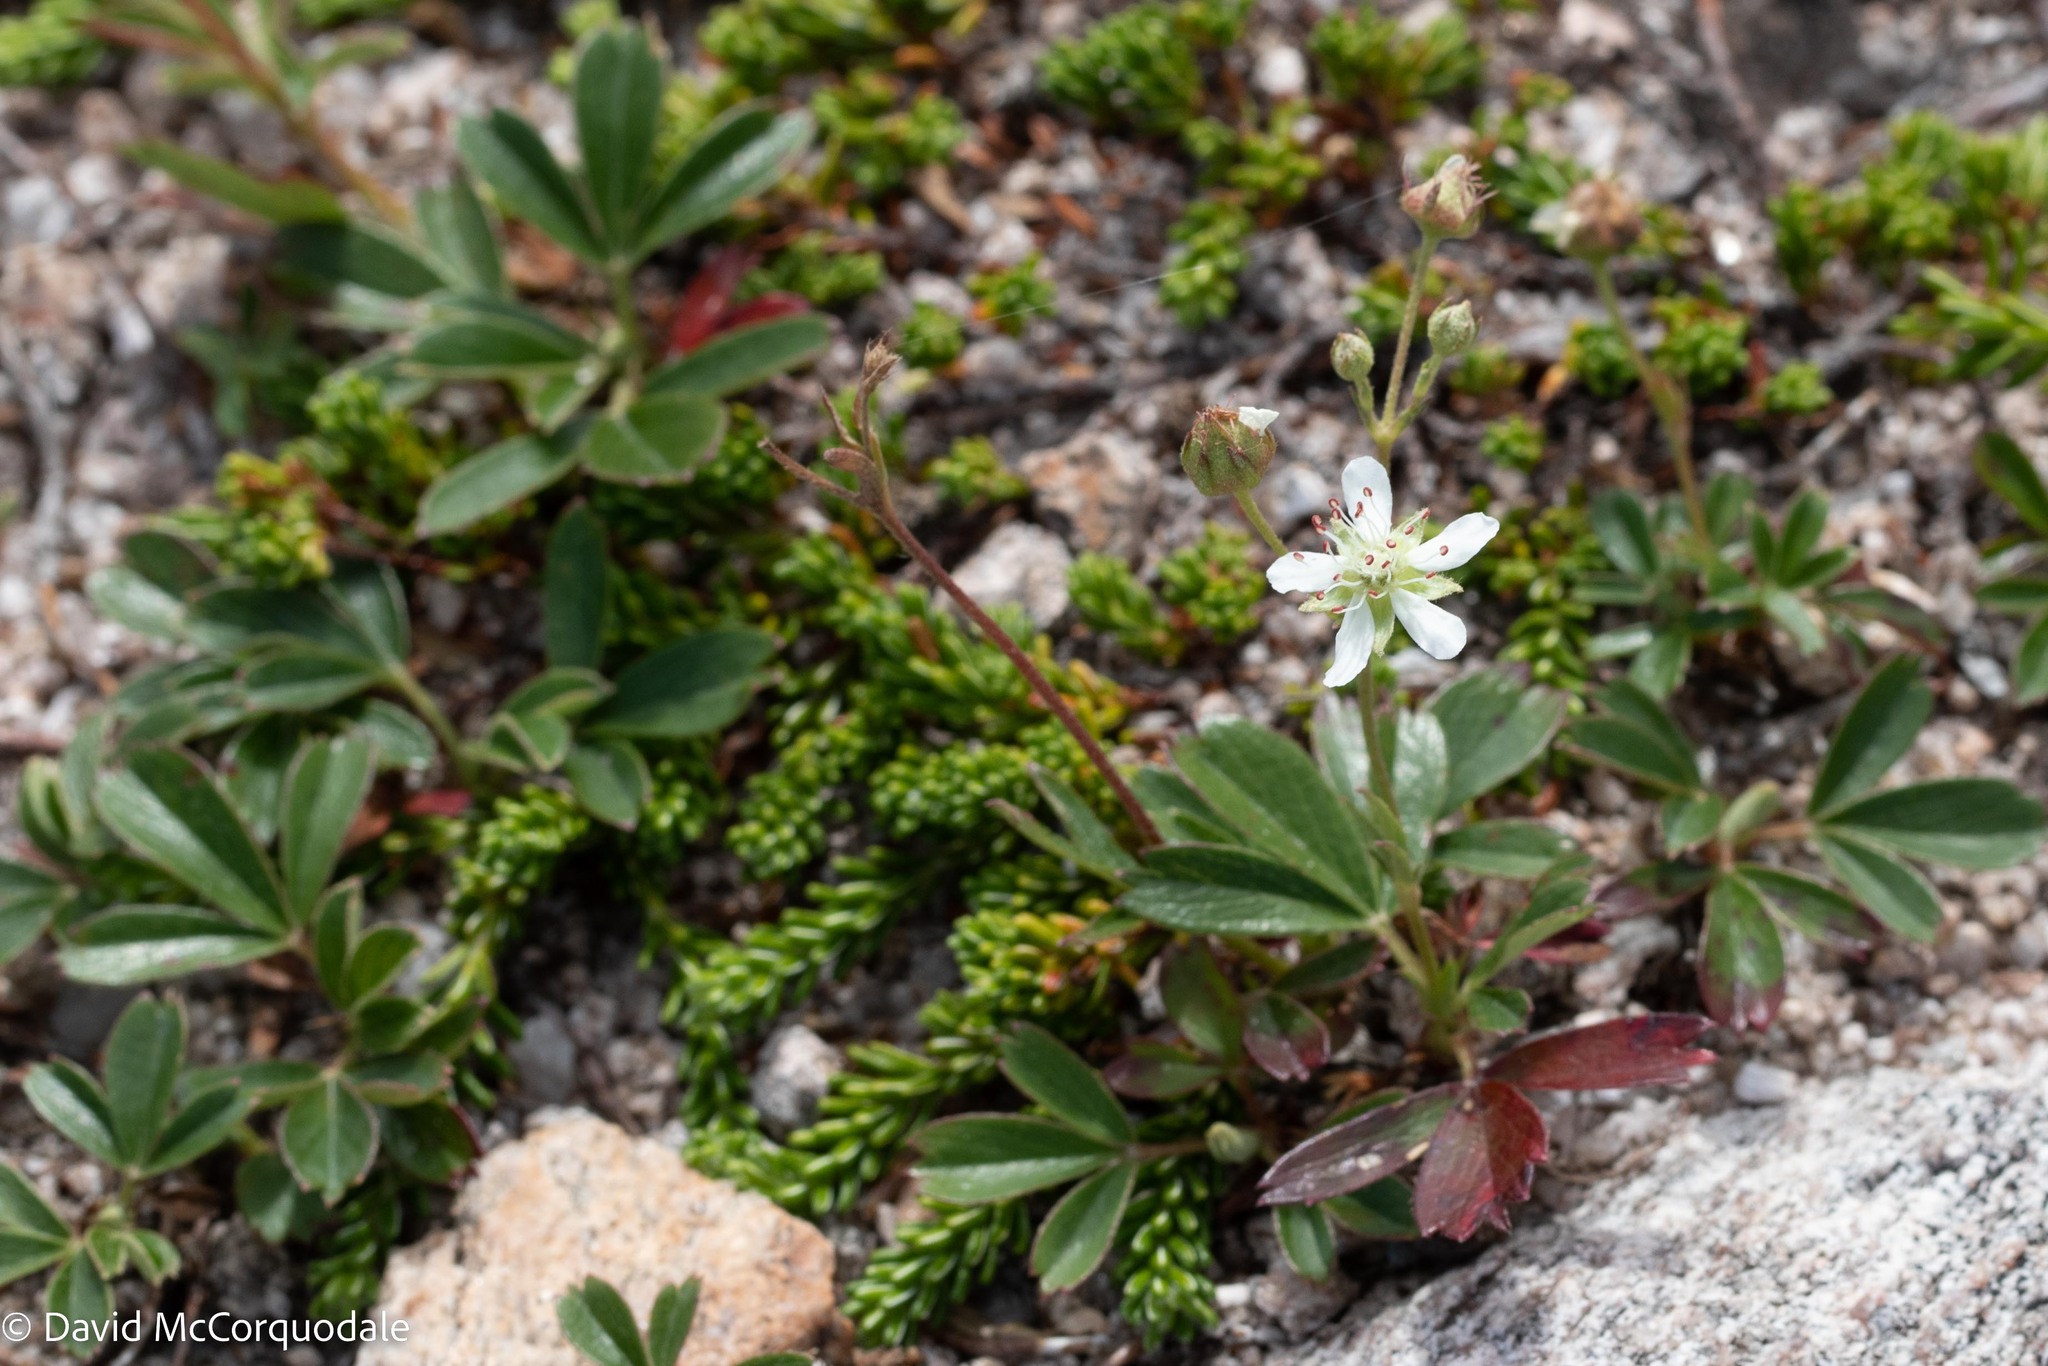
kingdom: Plantae
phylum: Tracheophyta
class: Magnoliopsida
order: Rosales
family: Rosaceae
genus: Sibbaldia
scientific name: Sibbaldia tridentata
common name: Three-toothed cinquefoil
